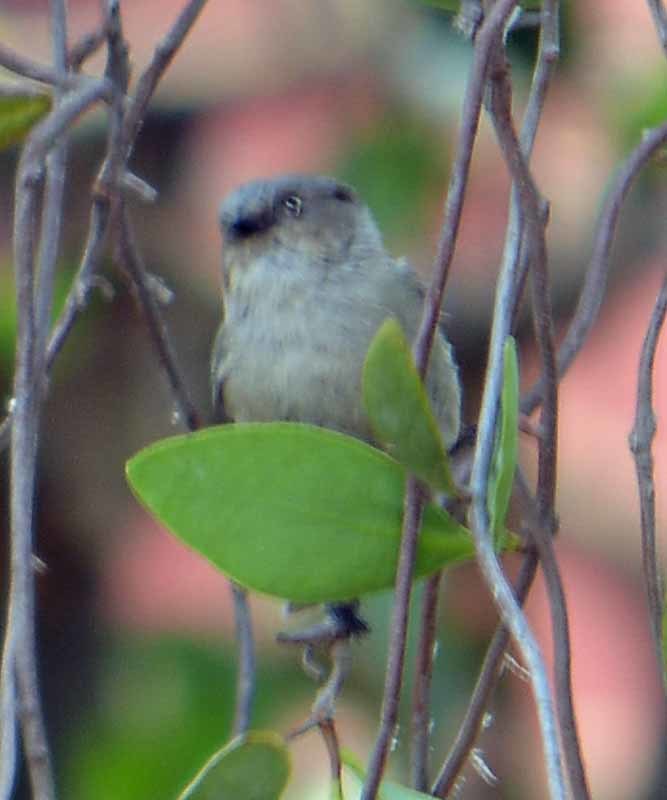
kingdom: Animalia
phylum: Chordata
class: Aves
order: Passeriformes
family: Aegithalidae
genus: Psaltriparus
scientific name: Psaltriparus minimus
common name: American bushtit
